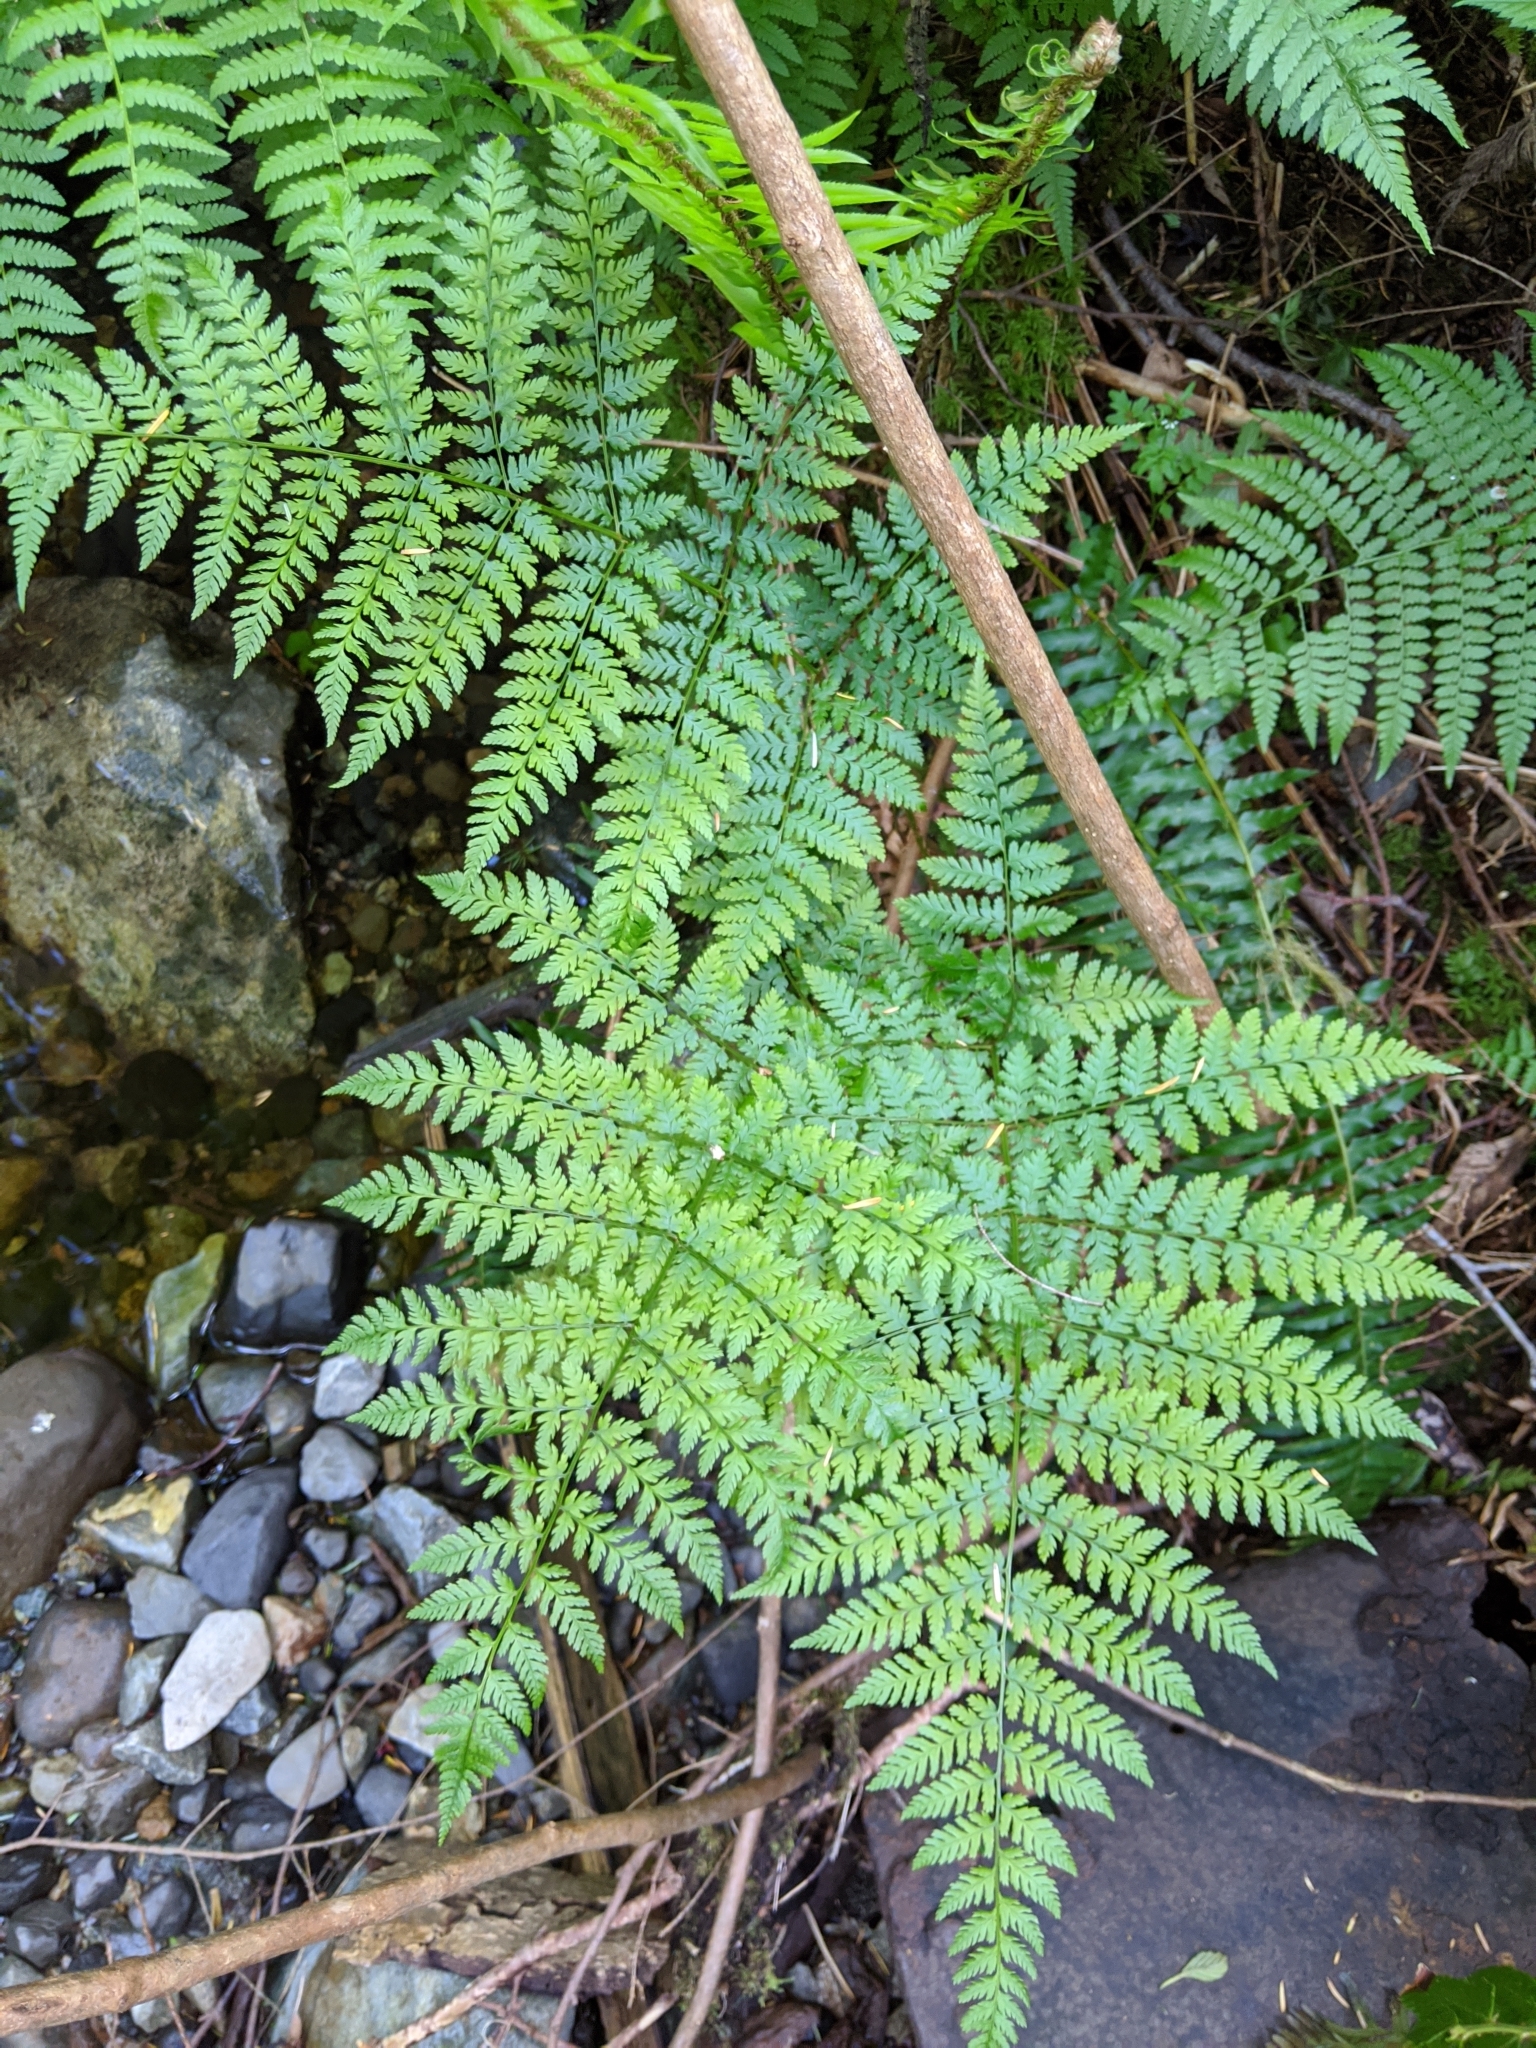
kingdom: Plantae
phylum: Tracheophyta
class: Polypodiopsida
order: Polypodiales
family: Dryopteridaceae
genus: Dryopteris
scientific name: Dryopteris expansa
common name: Northern buckler fern
